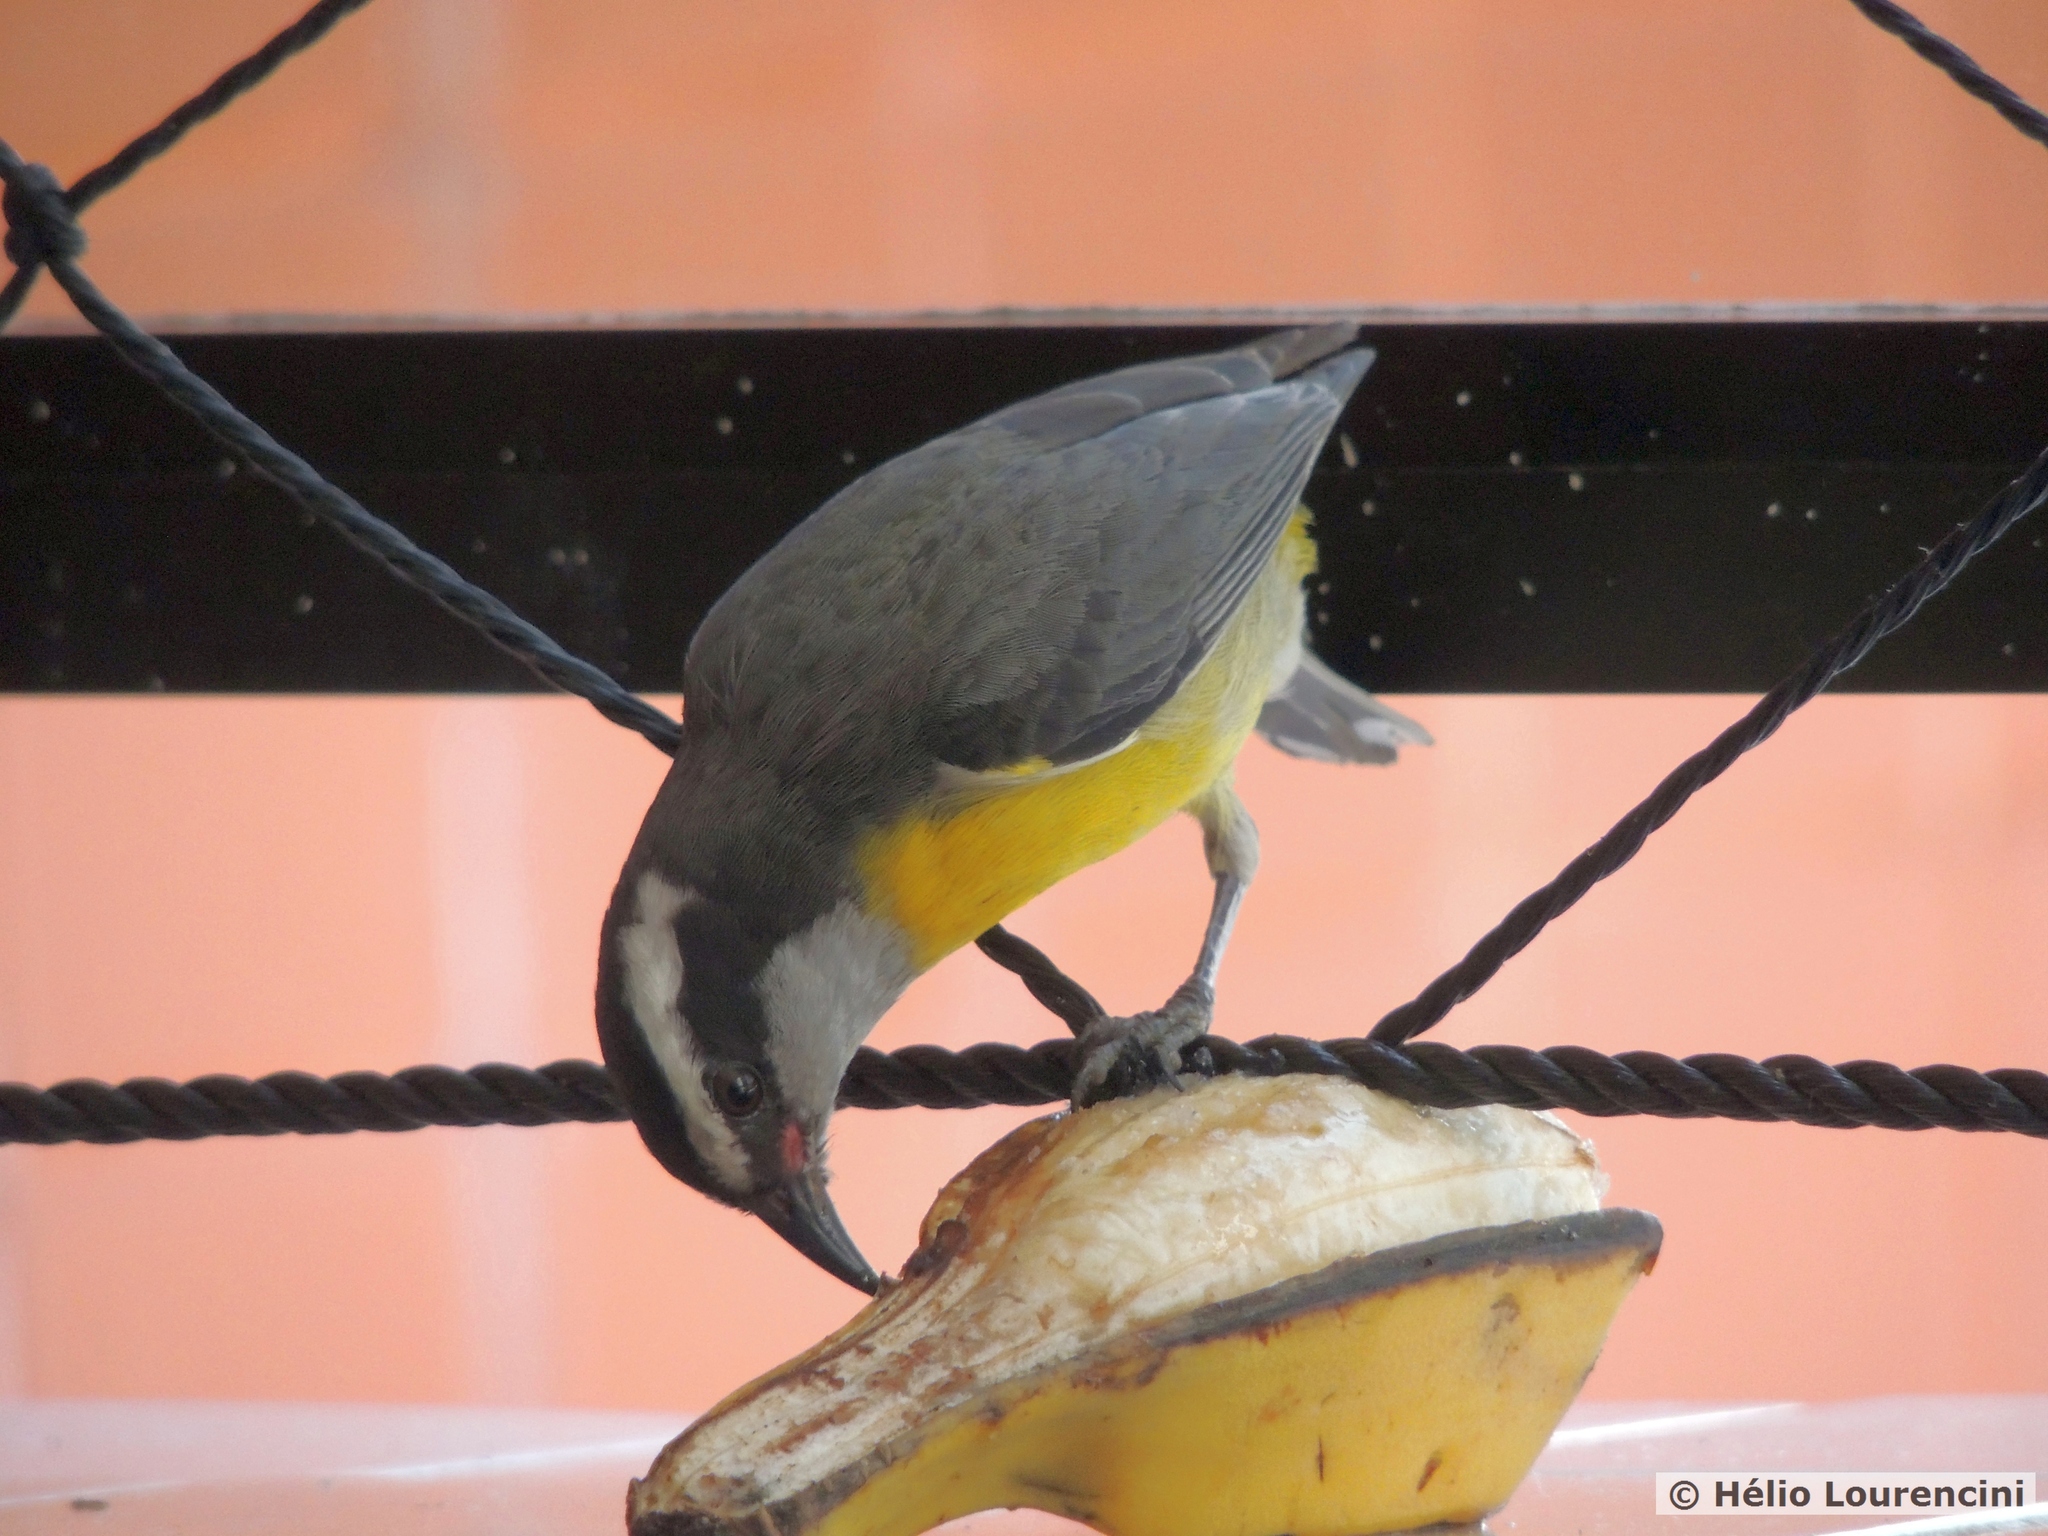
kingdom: Animalia
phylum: Chordata
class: Aves
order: Passeriformes
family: Thraupidae
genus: Coereba
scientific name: Coereba flaveola
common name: Bananaquit
